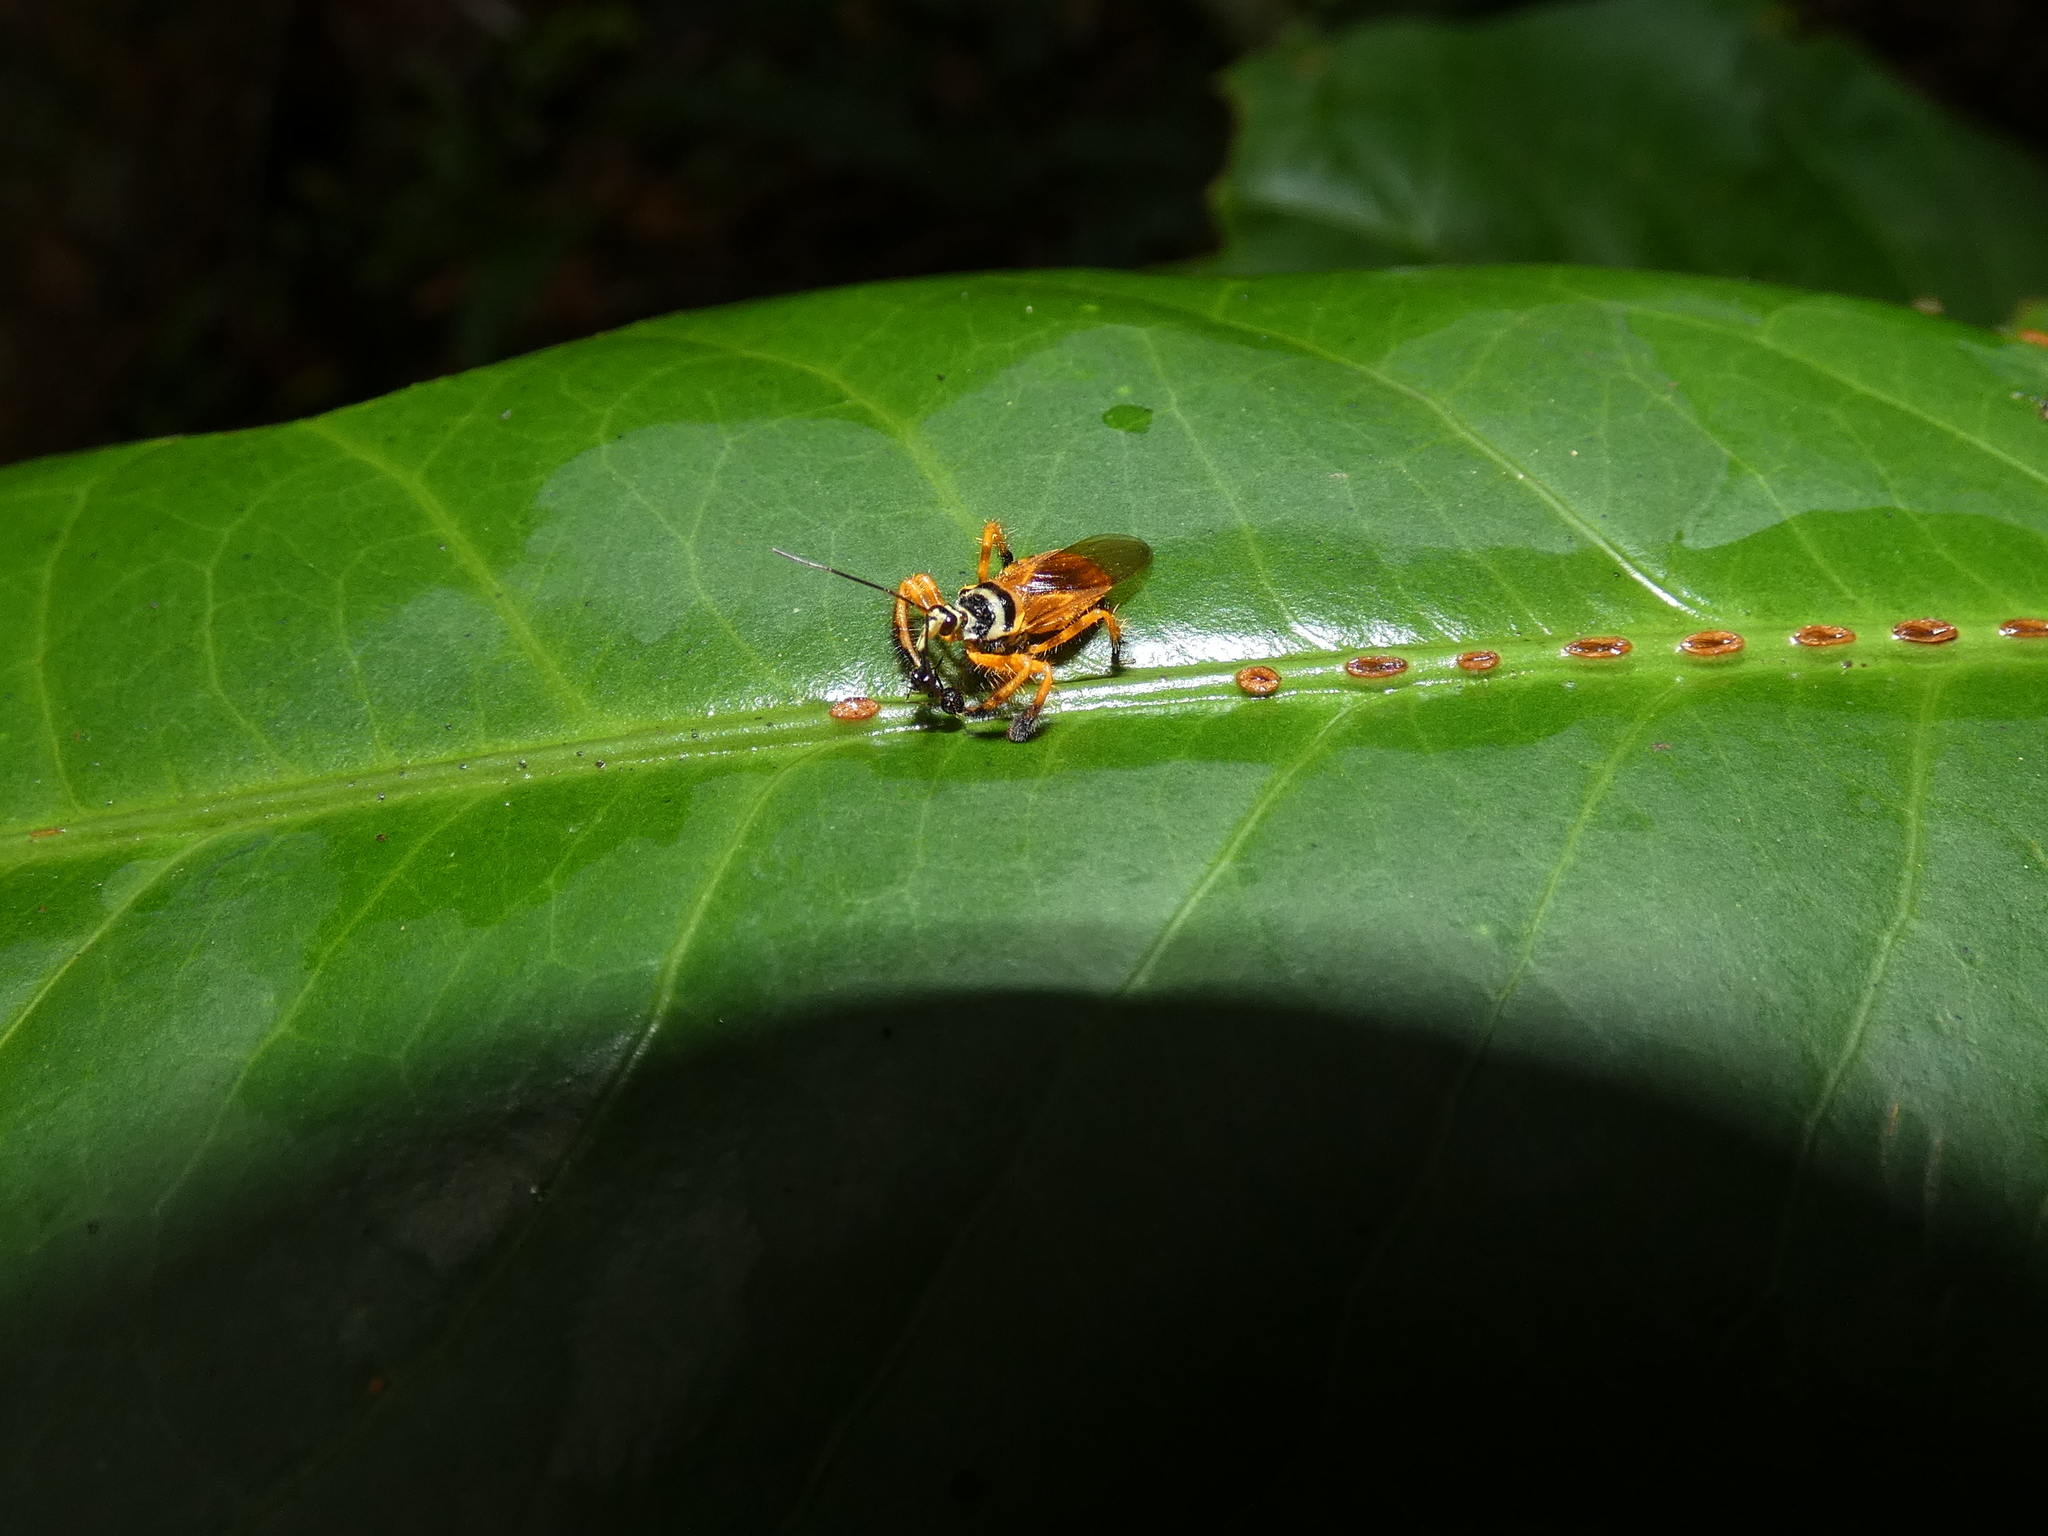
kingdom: Animalia
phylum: Arthropoda
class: Insecta
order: Hemiptera
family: Reduviidae
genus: Agriocoris
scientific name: Agriocoris flavipes
